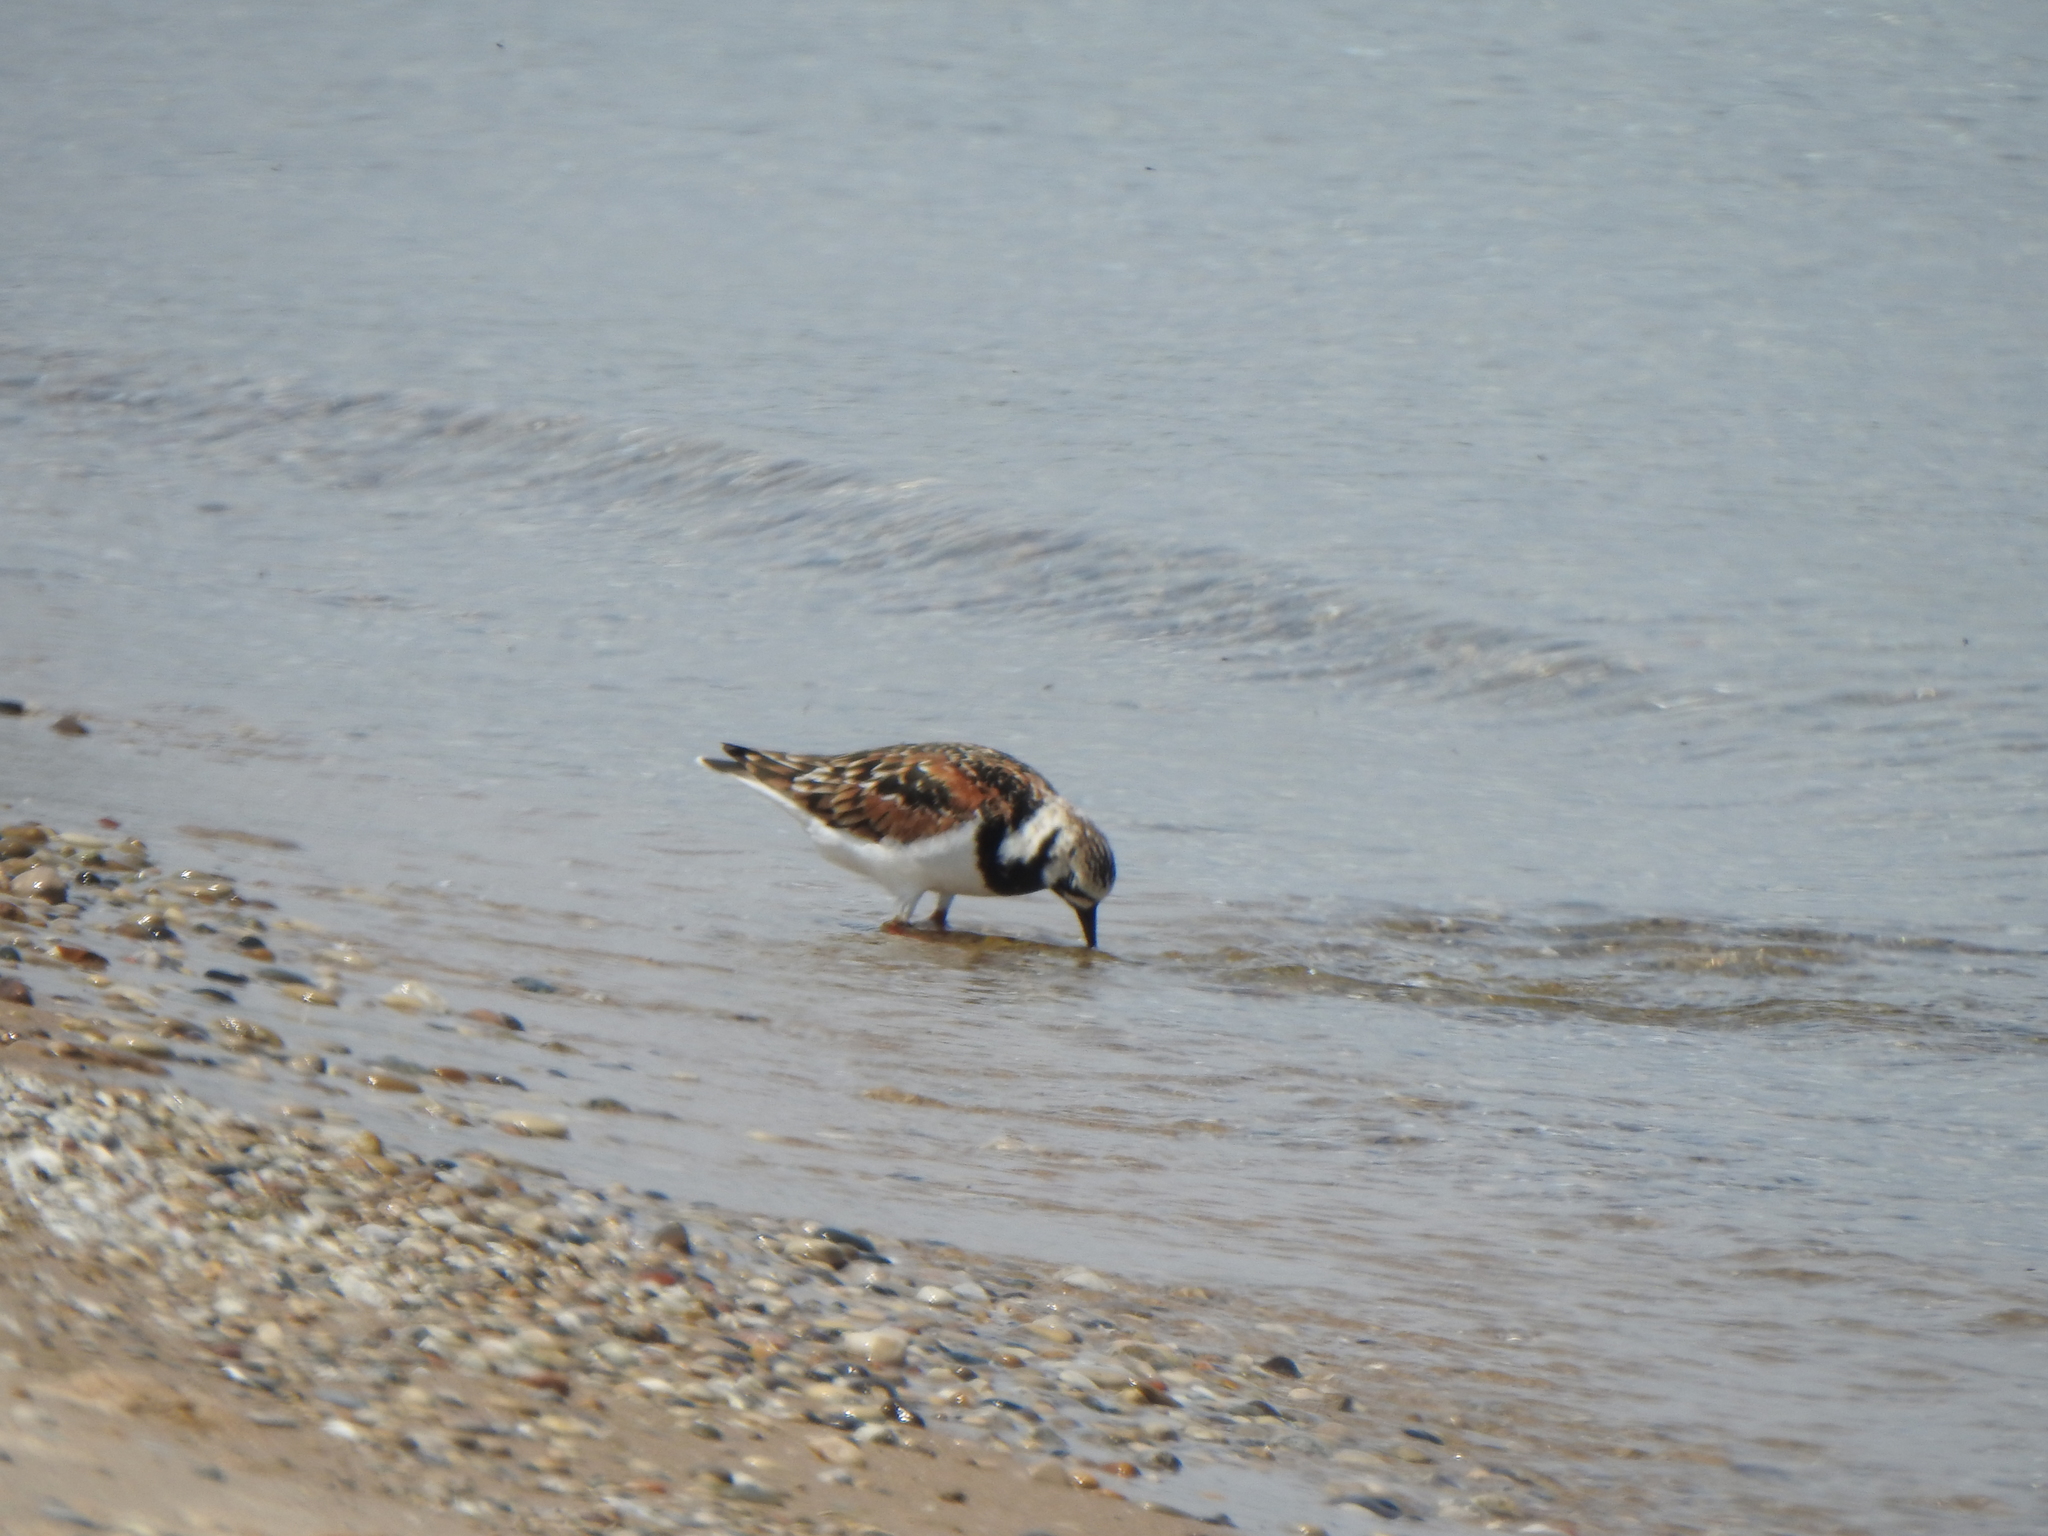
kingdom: Animalia
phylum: Chordata
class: Aves
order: Charadriiformes
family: Scolopacidae
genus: Arenaria
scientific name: Arenaria interpres
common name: Ruddy turnstone
